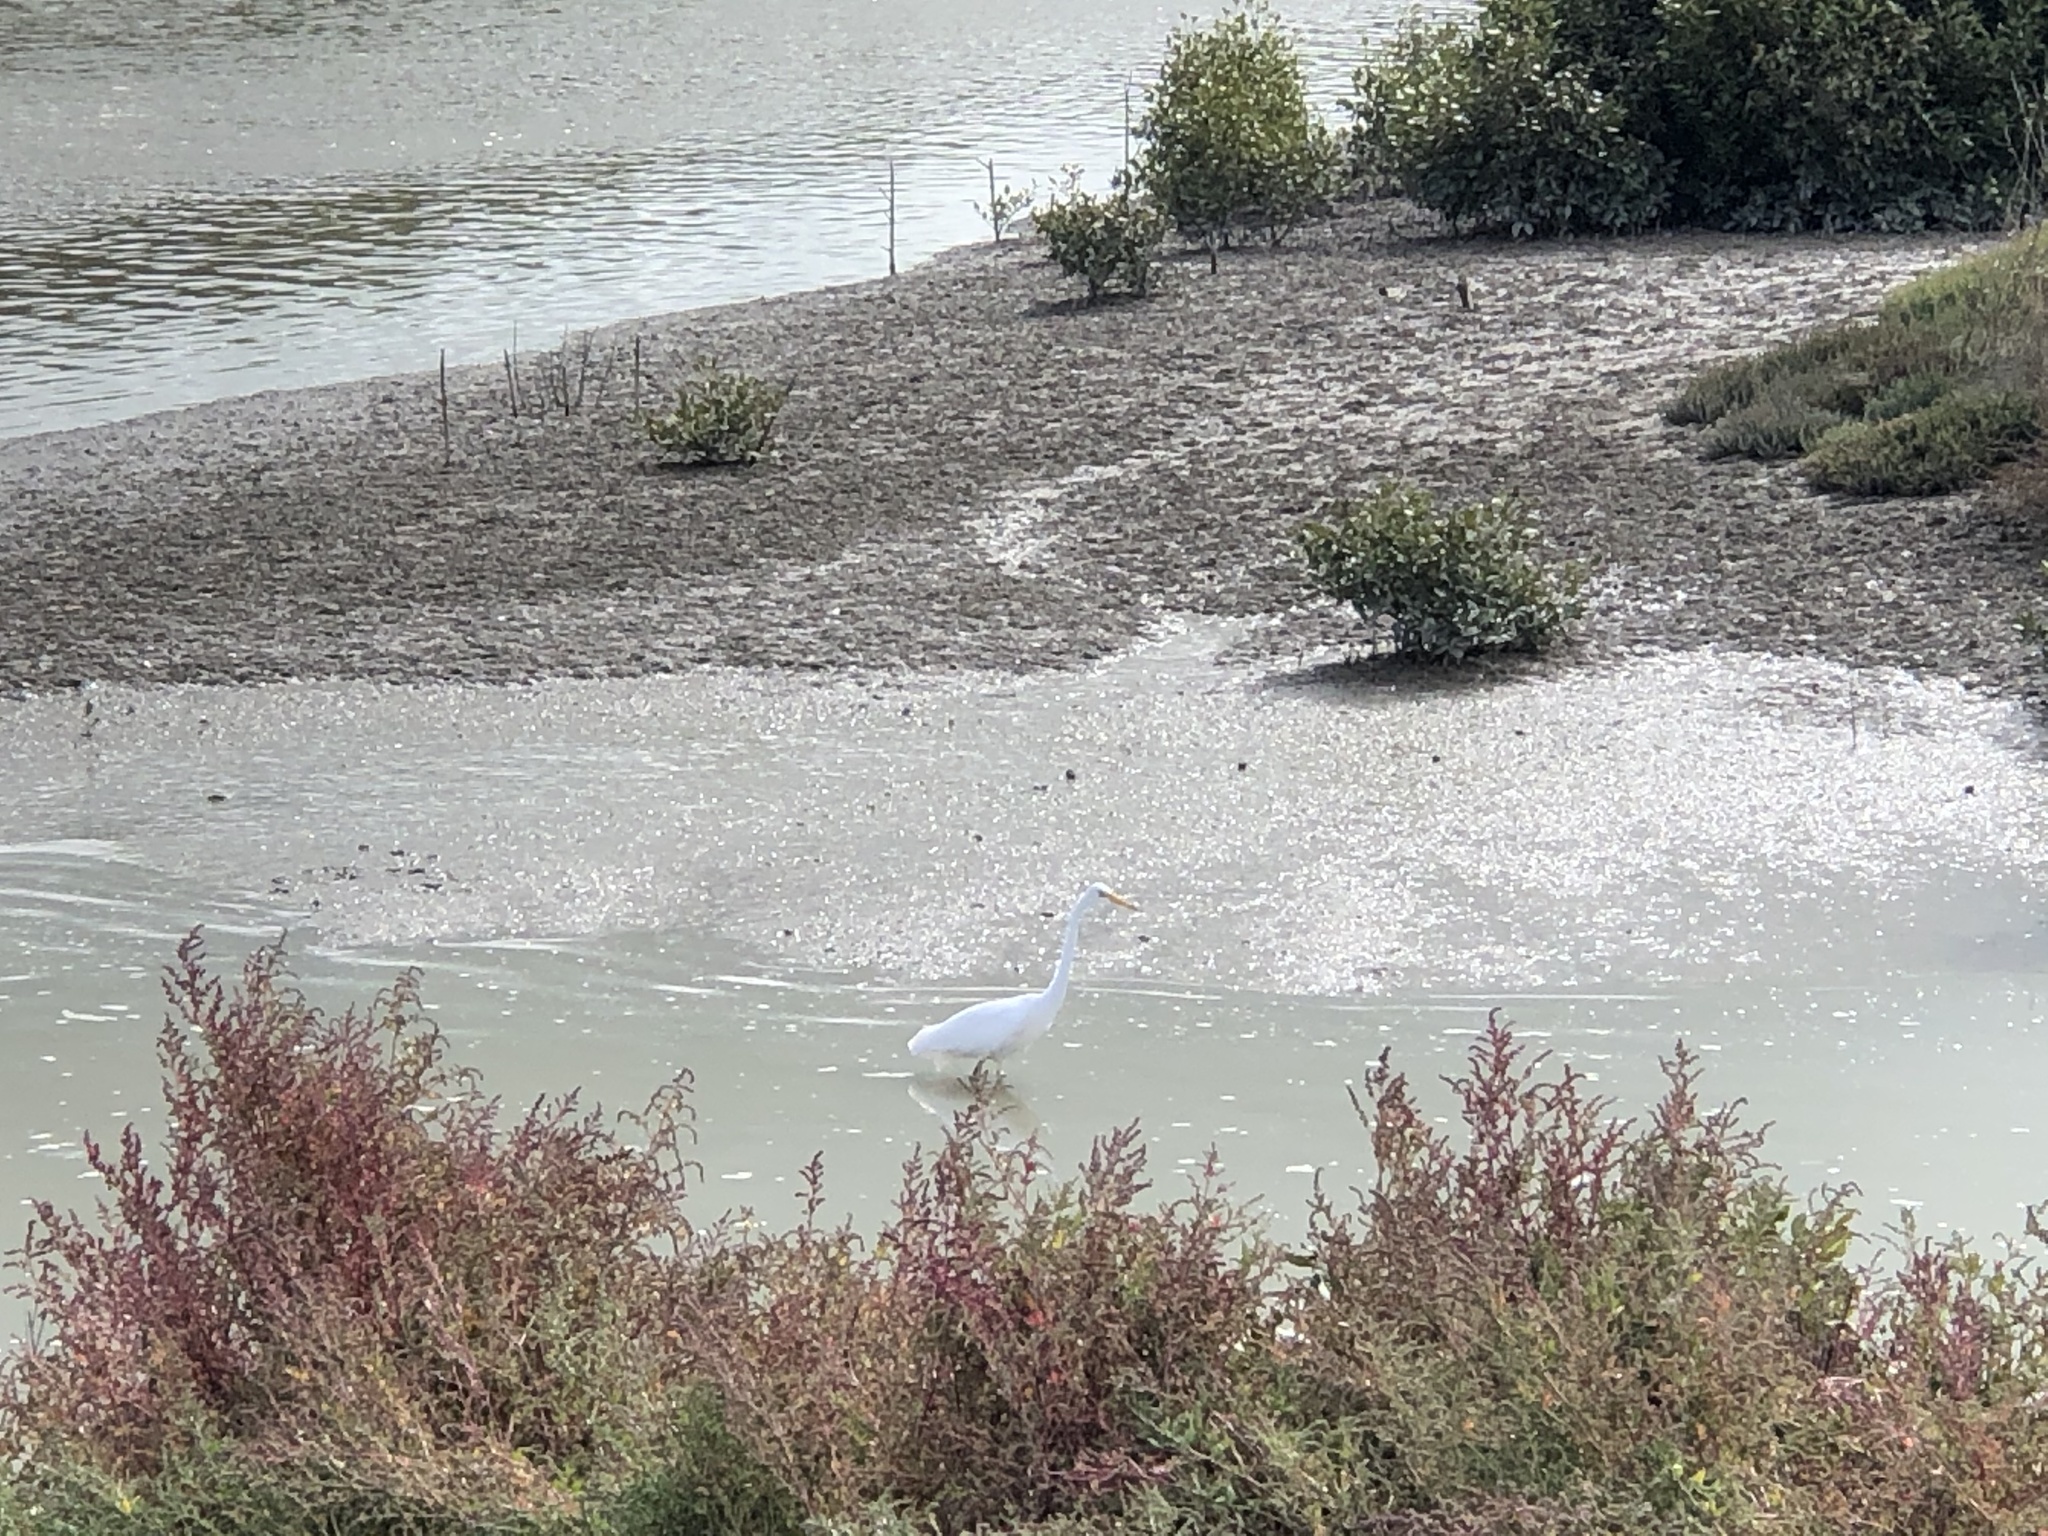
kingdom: Animalia
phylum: Chordata
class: Aves
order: Pelecaniformes
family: Ardeidae
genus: Ardea
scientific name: Ardea modesta
